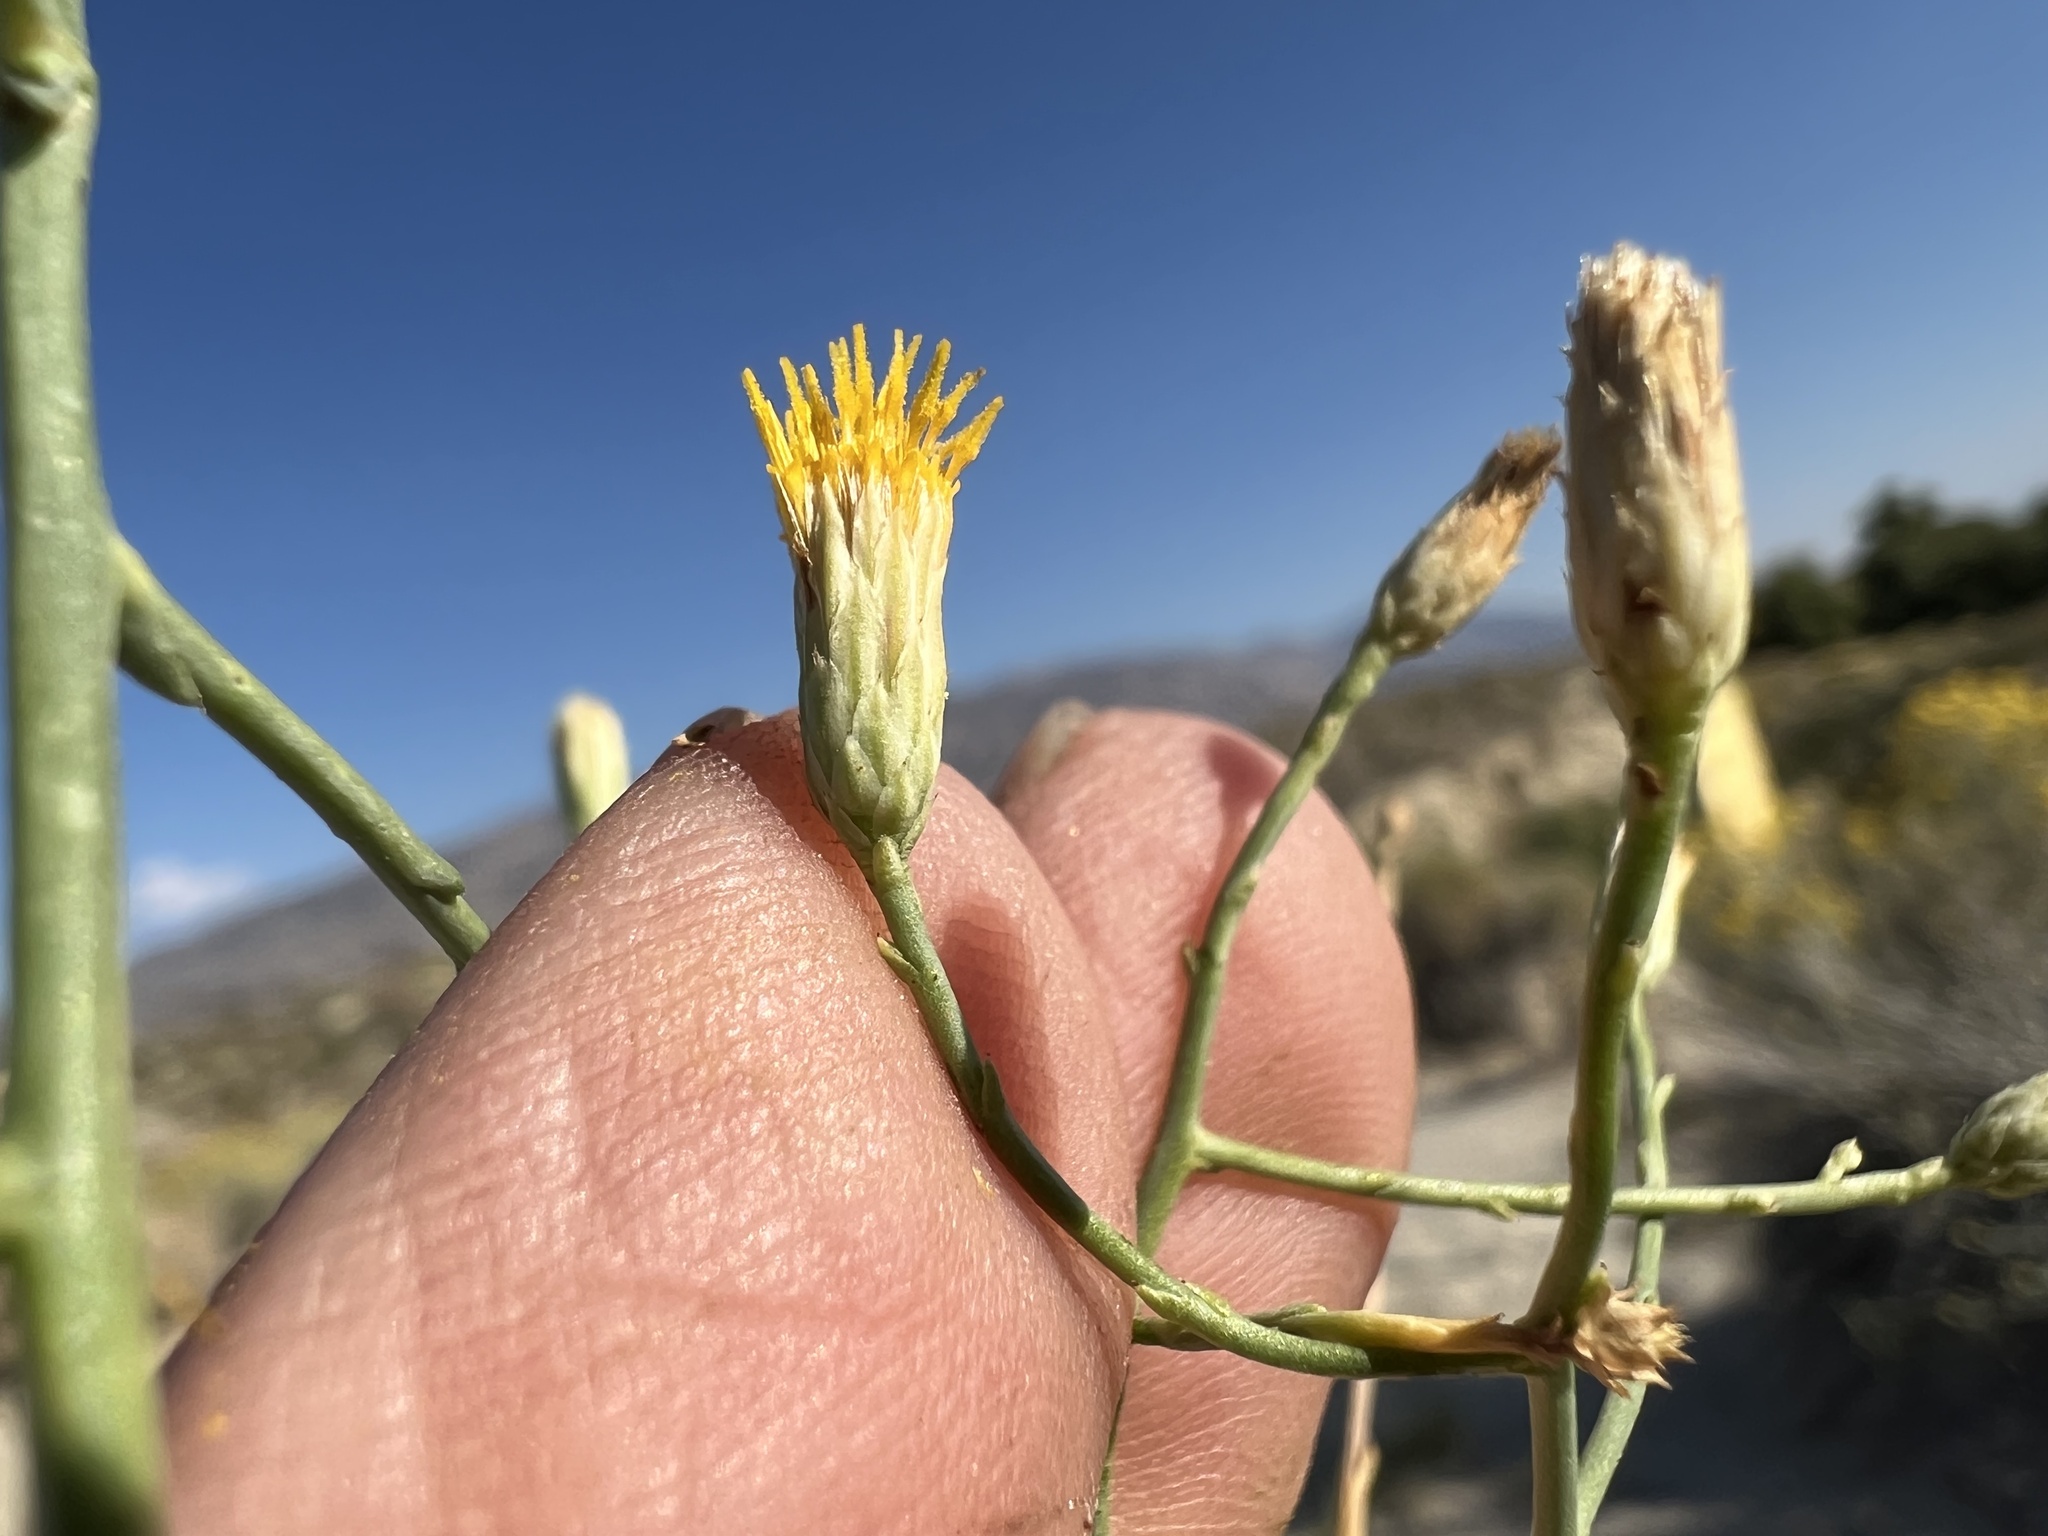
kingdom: Plantae
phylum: Tracheophyta
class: Magnoliopsida
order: Asterales
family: Asteraceae
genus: Leucosyris
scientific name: Leucosyris carnosa
